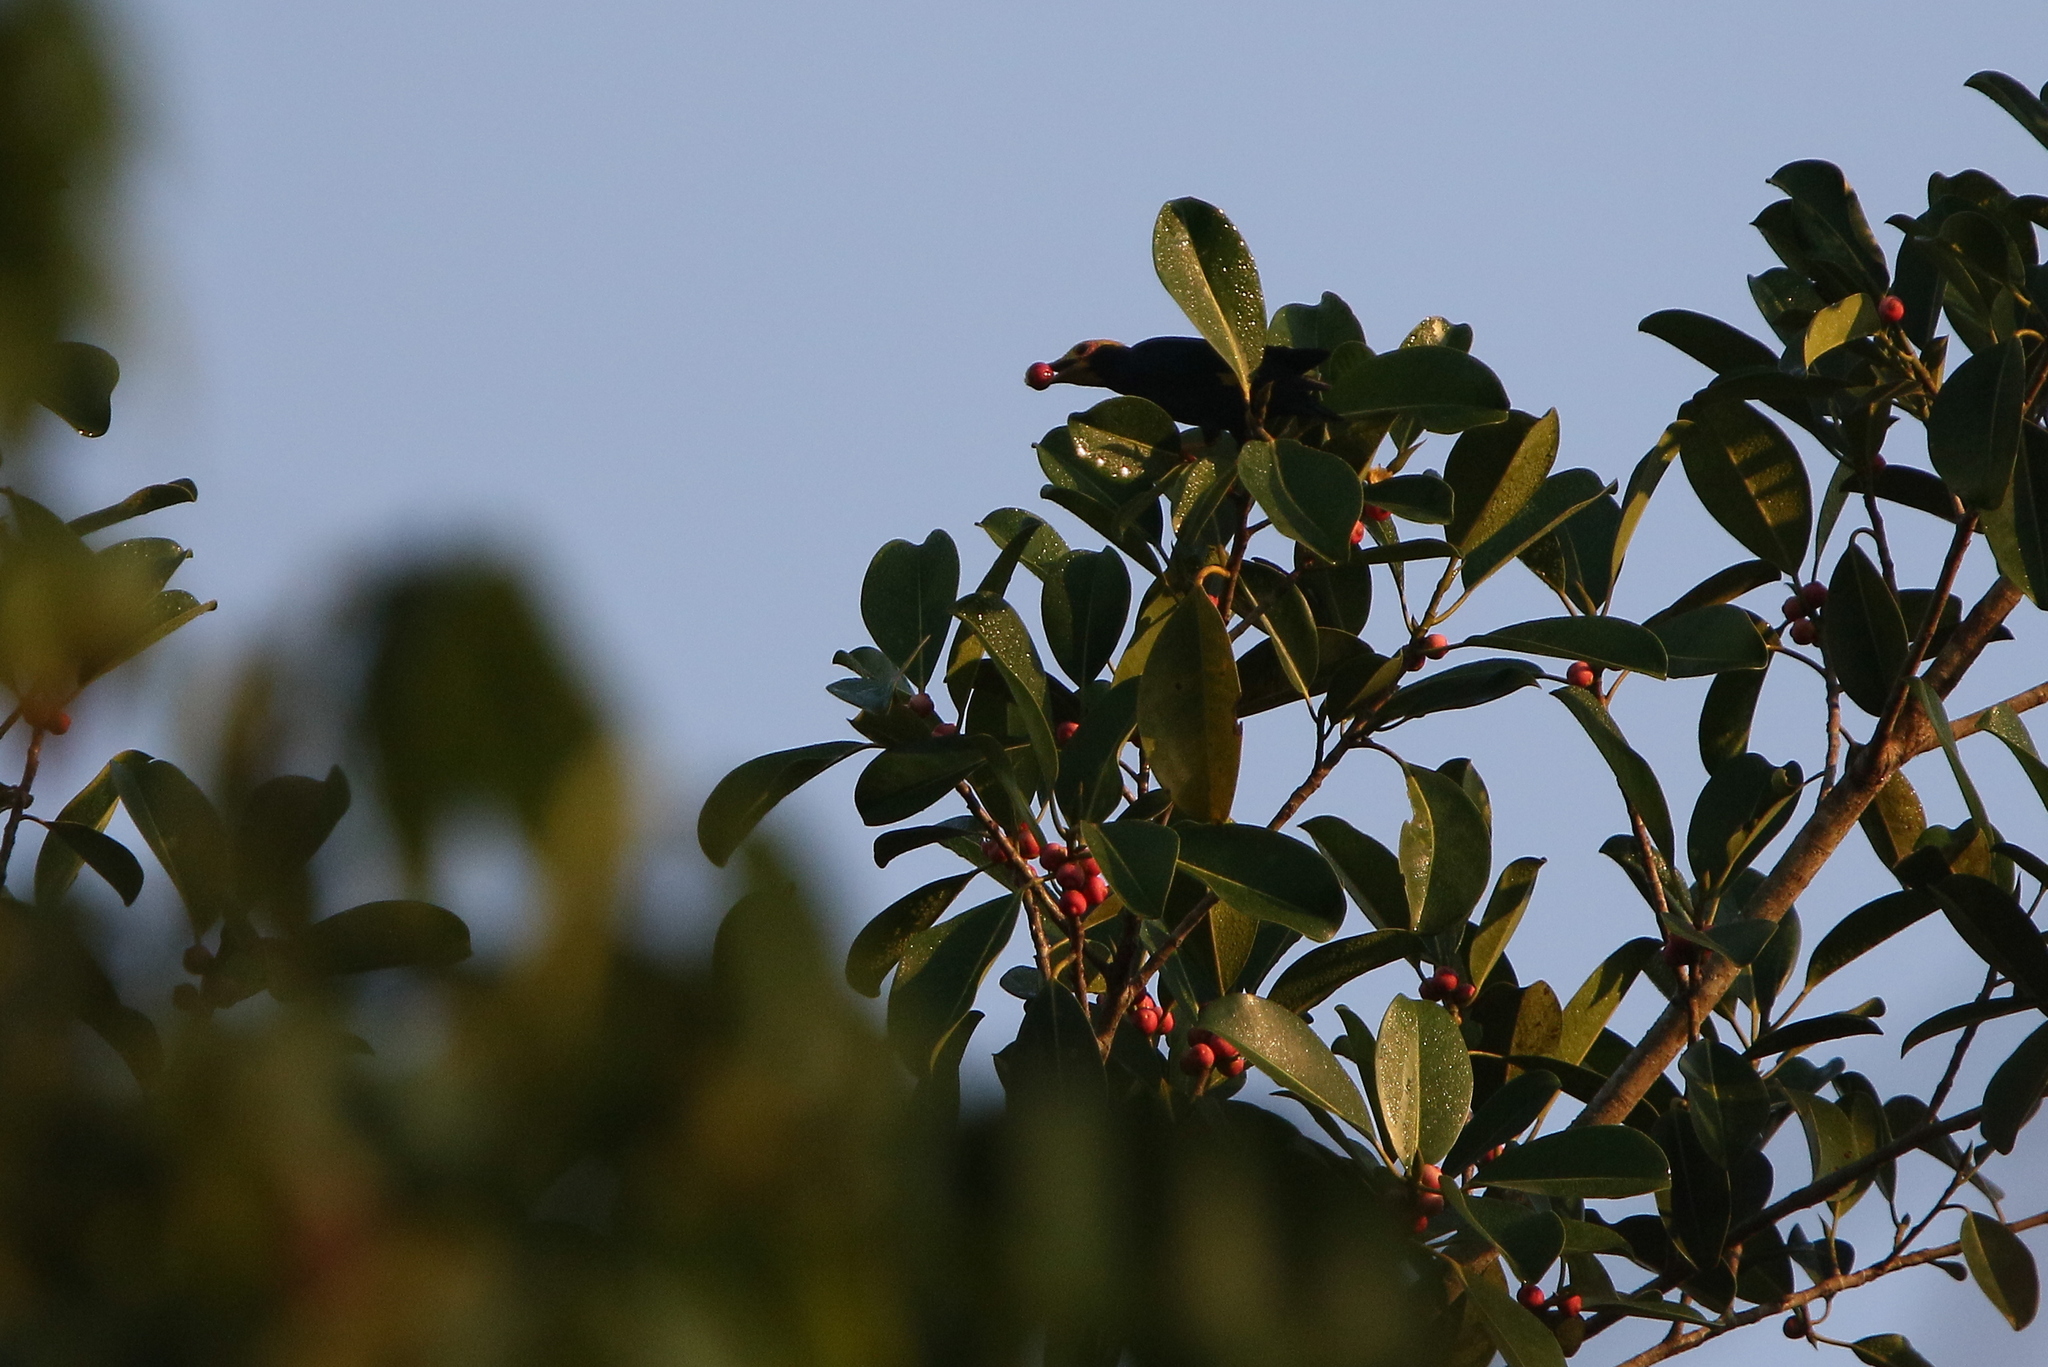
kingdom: Animalia
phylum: Chordata
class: Aves
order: Passeriformes
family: Sturnidae
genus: Ampeliceps
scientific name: Ampeliceps coronatus
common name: Golden-crested myna
